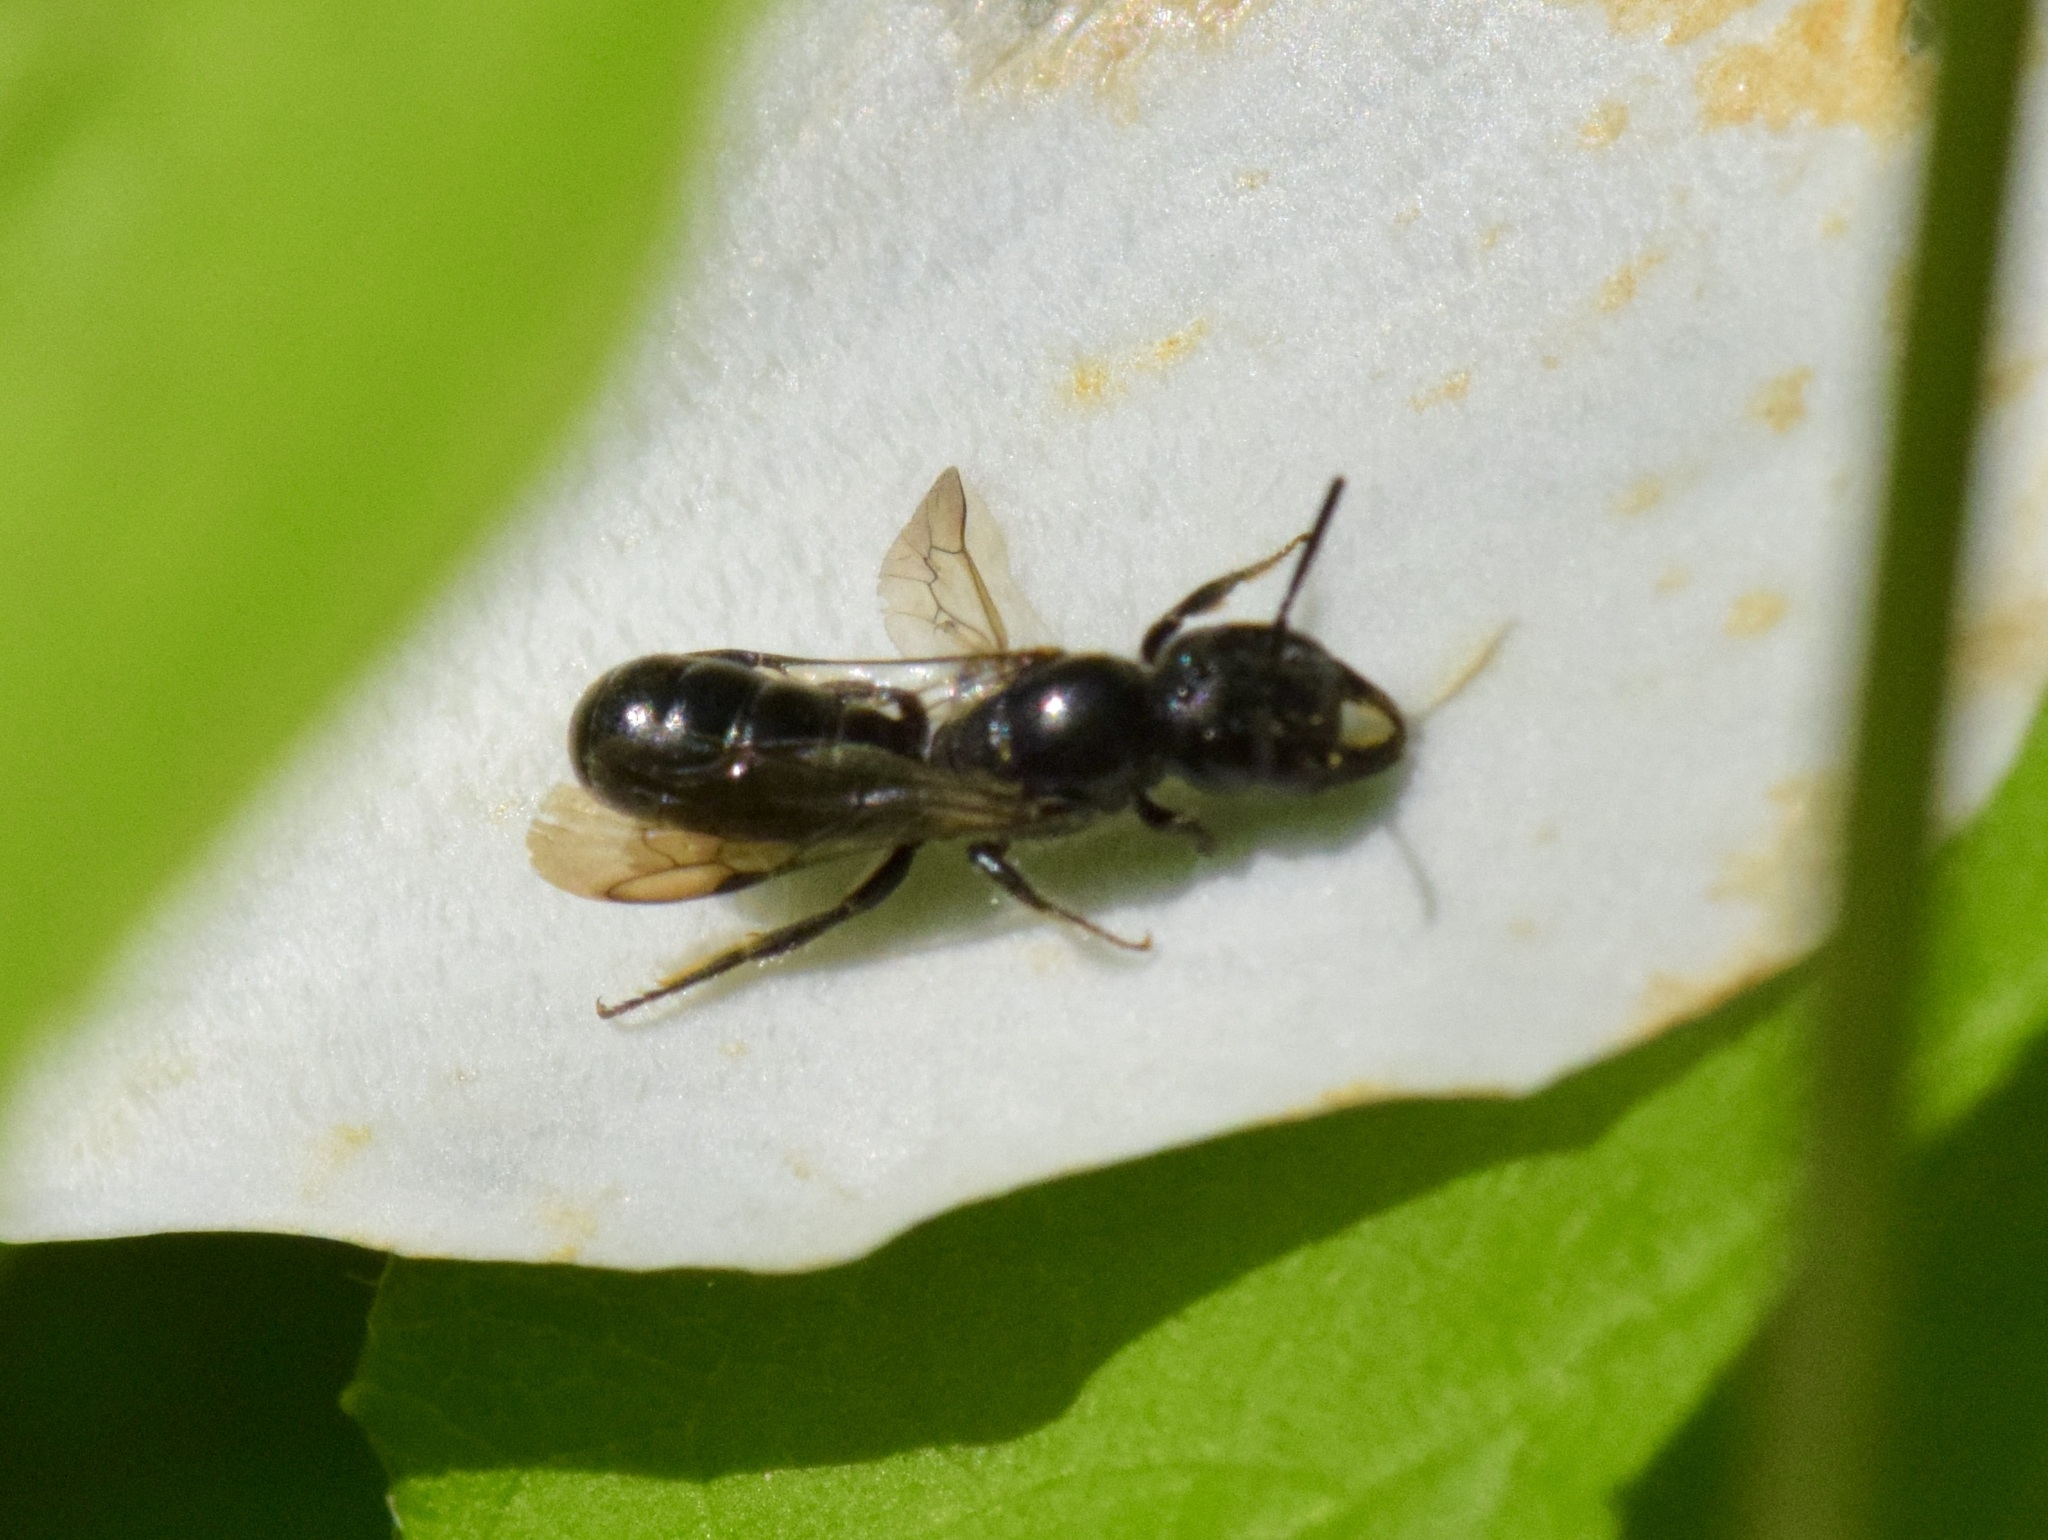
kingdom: Animalia
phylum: Arthropoda
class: Insecta
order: Hymenoptera
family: Megachilidae
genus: Chelostoma
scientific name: Chelostoma philadelphi
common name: Mock-orange scissor bee
